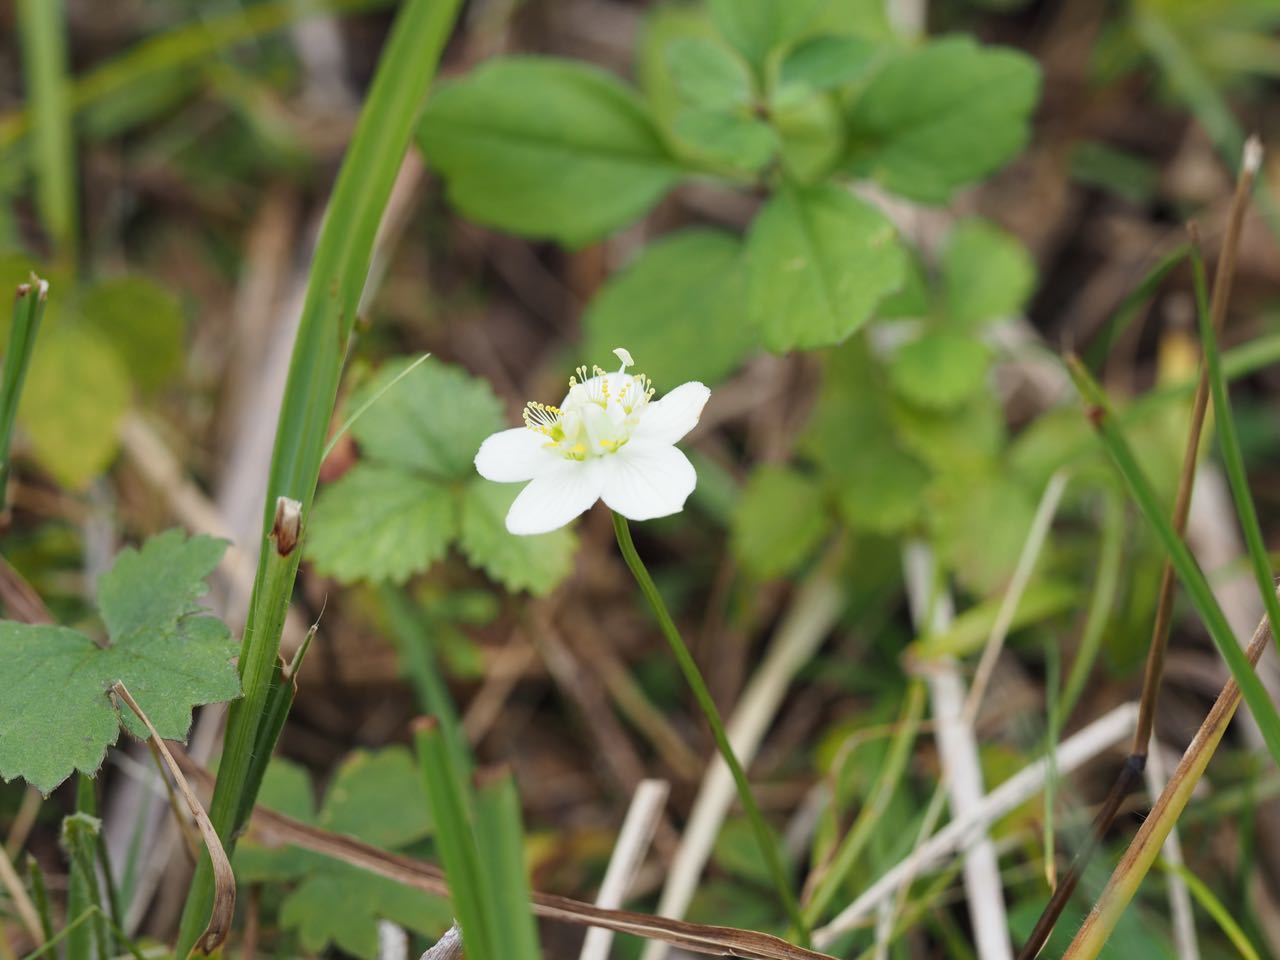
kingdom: Plantae
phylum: Tracheophyta
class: Magnoliopsida
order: Celastrales
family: Parnassiaceae
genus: Parnassia
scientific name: Parnassia palustris
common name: Grass-of-parnassus
